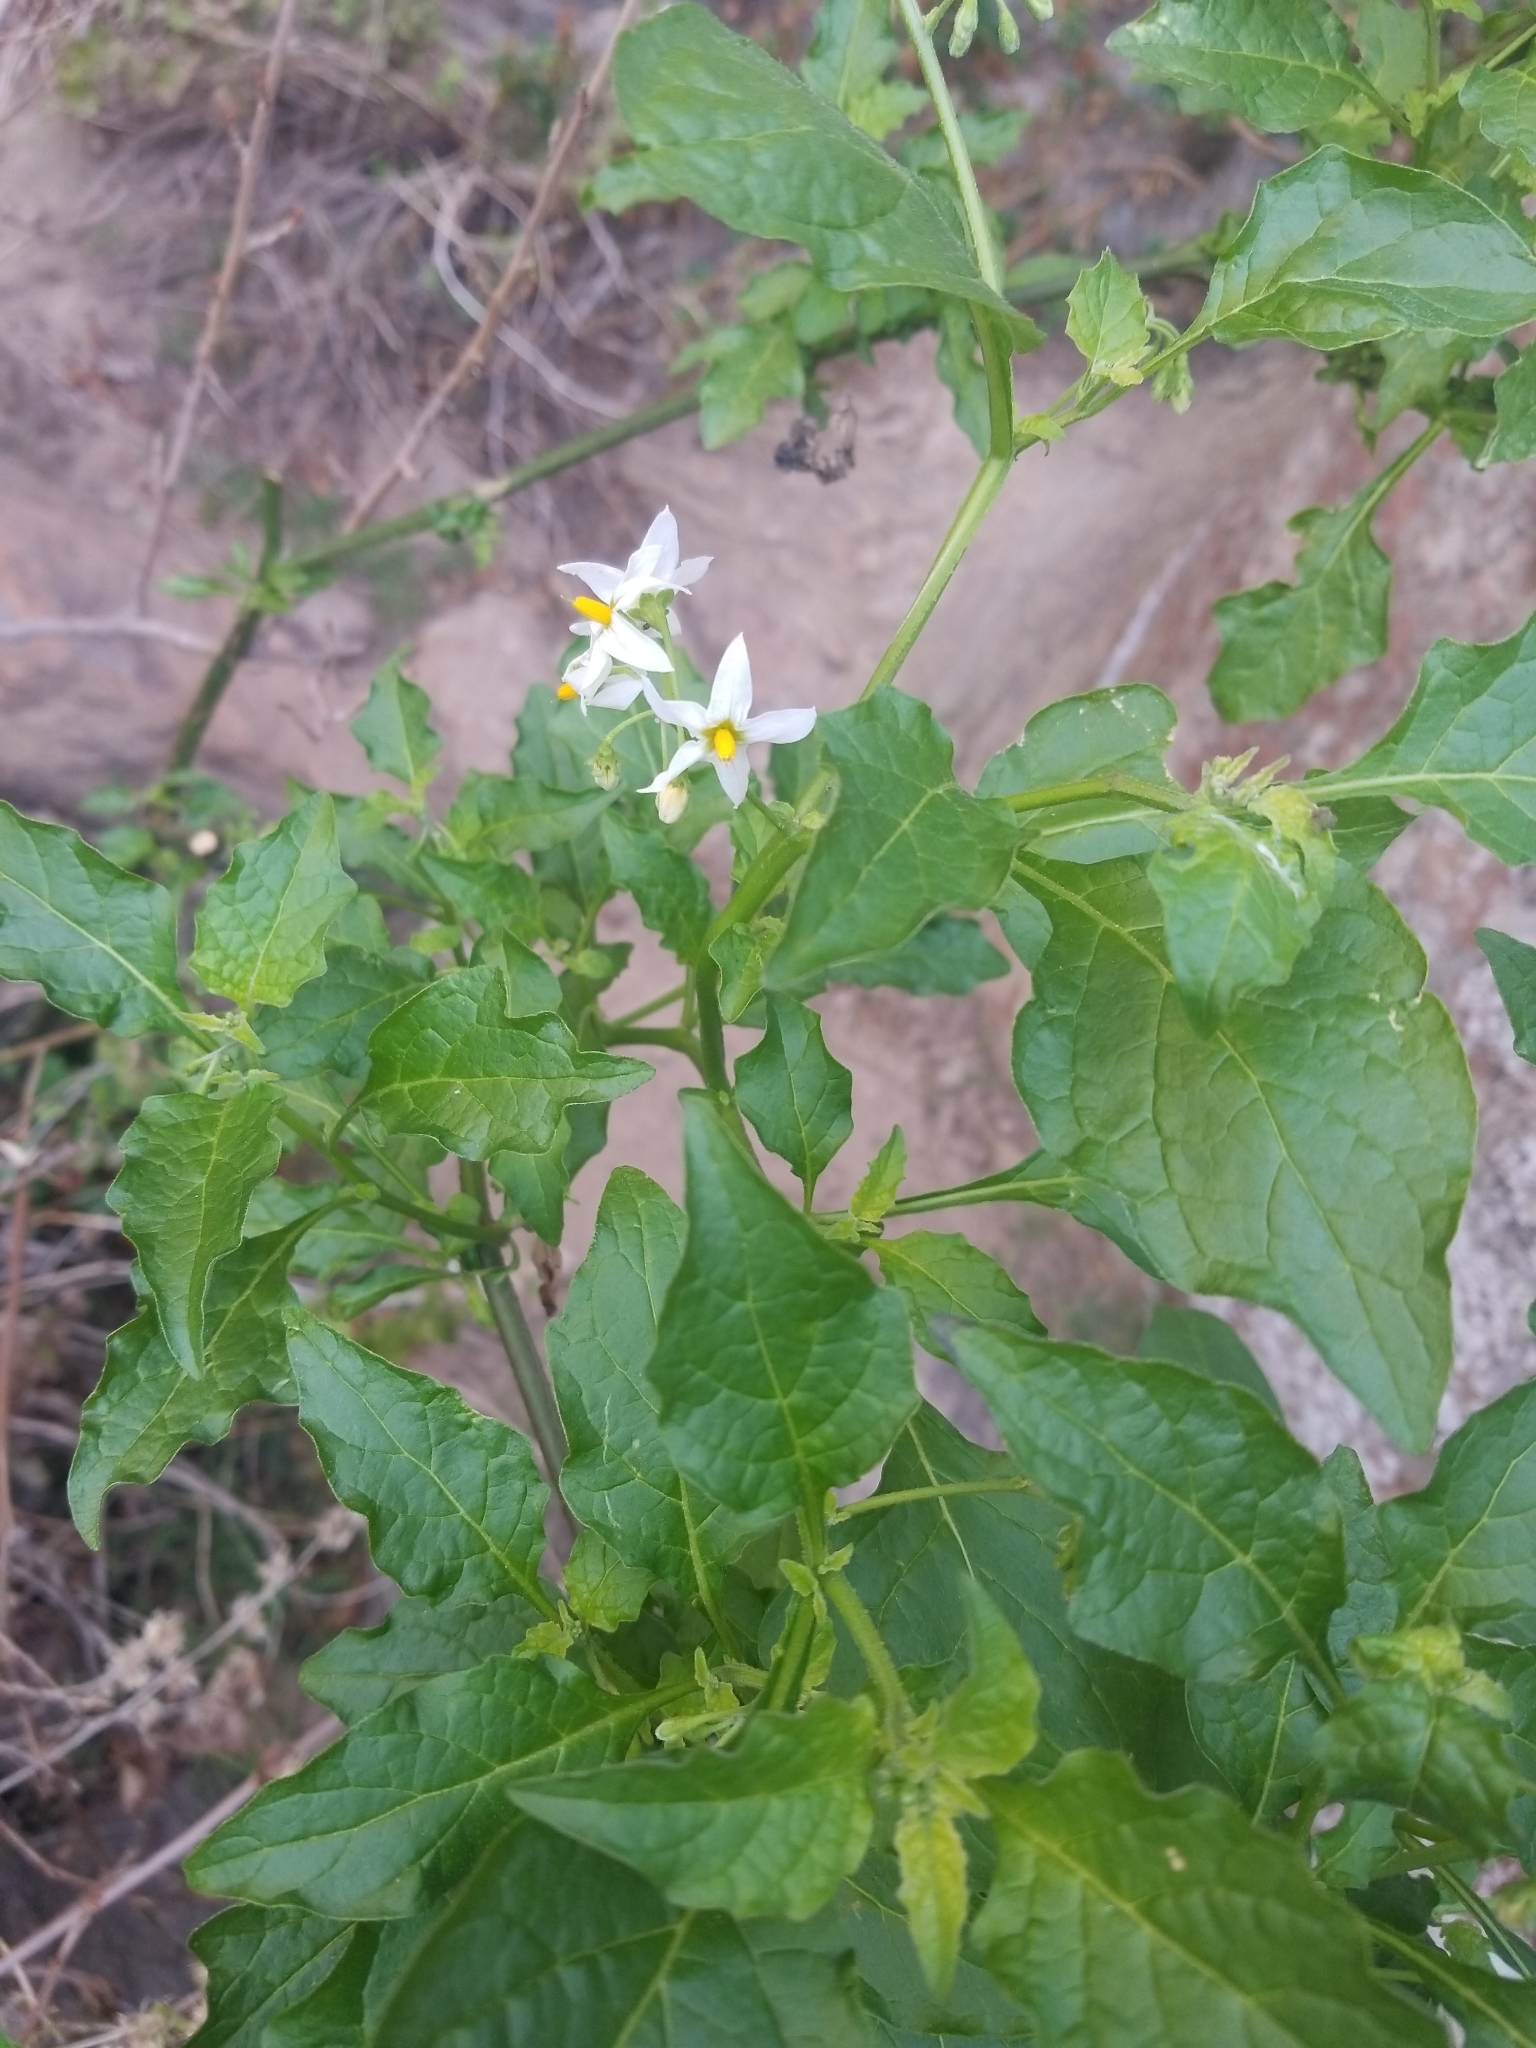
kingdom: Plantae
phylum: Tracheophyta
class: Magnoliopsida
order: Solanales
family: Solanaceae
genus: Solanum
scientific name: Solanum douglasii
